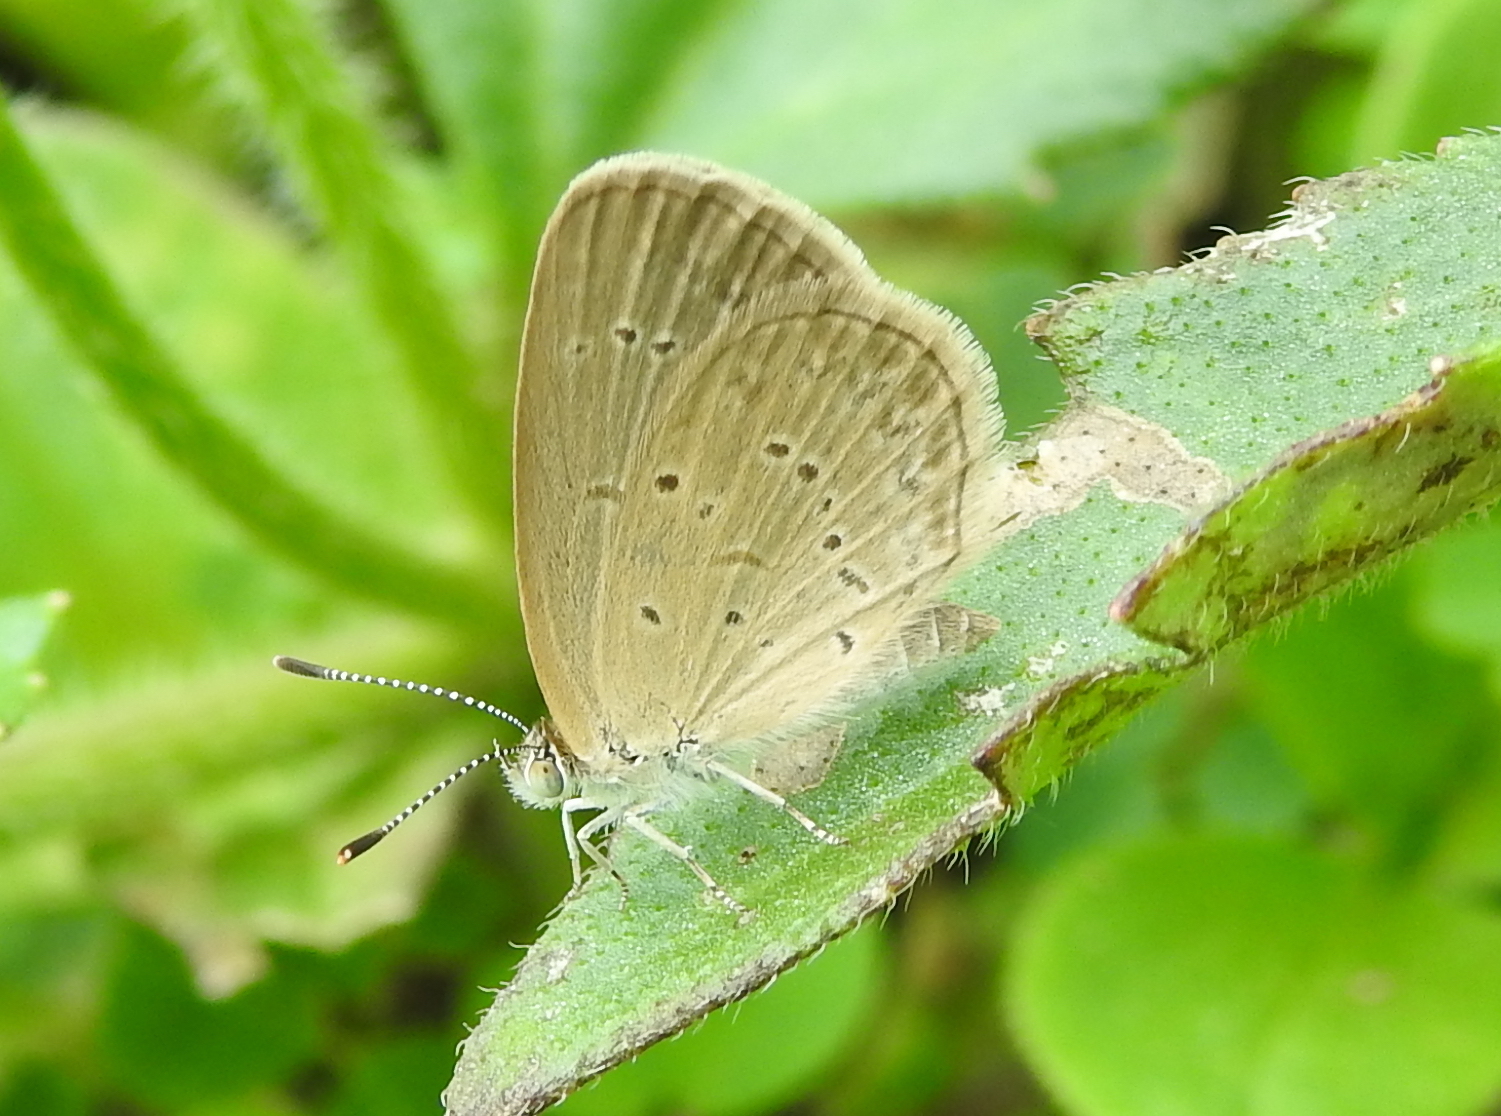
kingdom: Animalia
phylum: Arthropoda
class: Insecta
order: Lepidoptera
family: Lycaenidae
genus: Zizina
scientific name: Zizina otis
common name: Lesser grass blue
